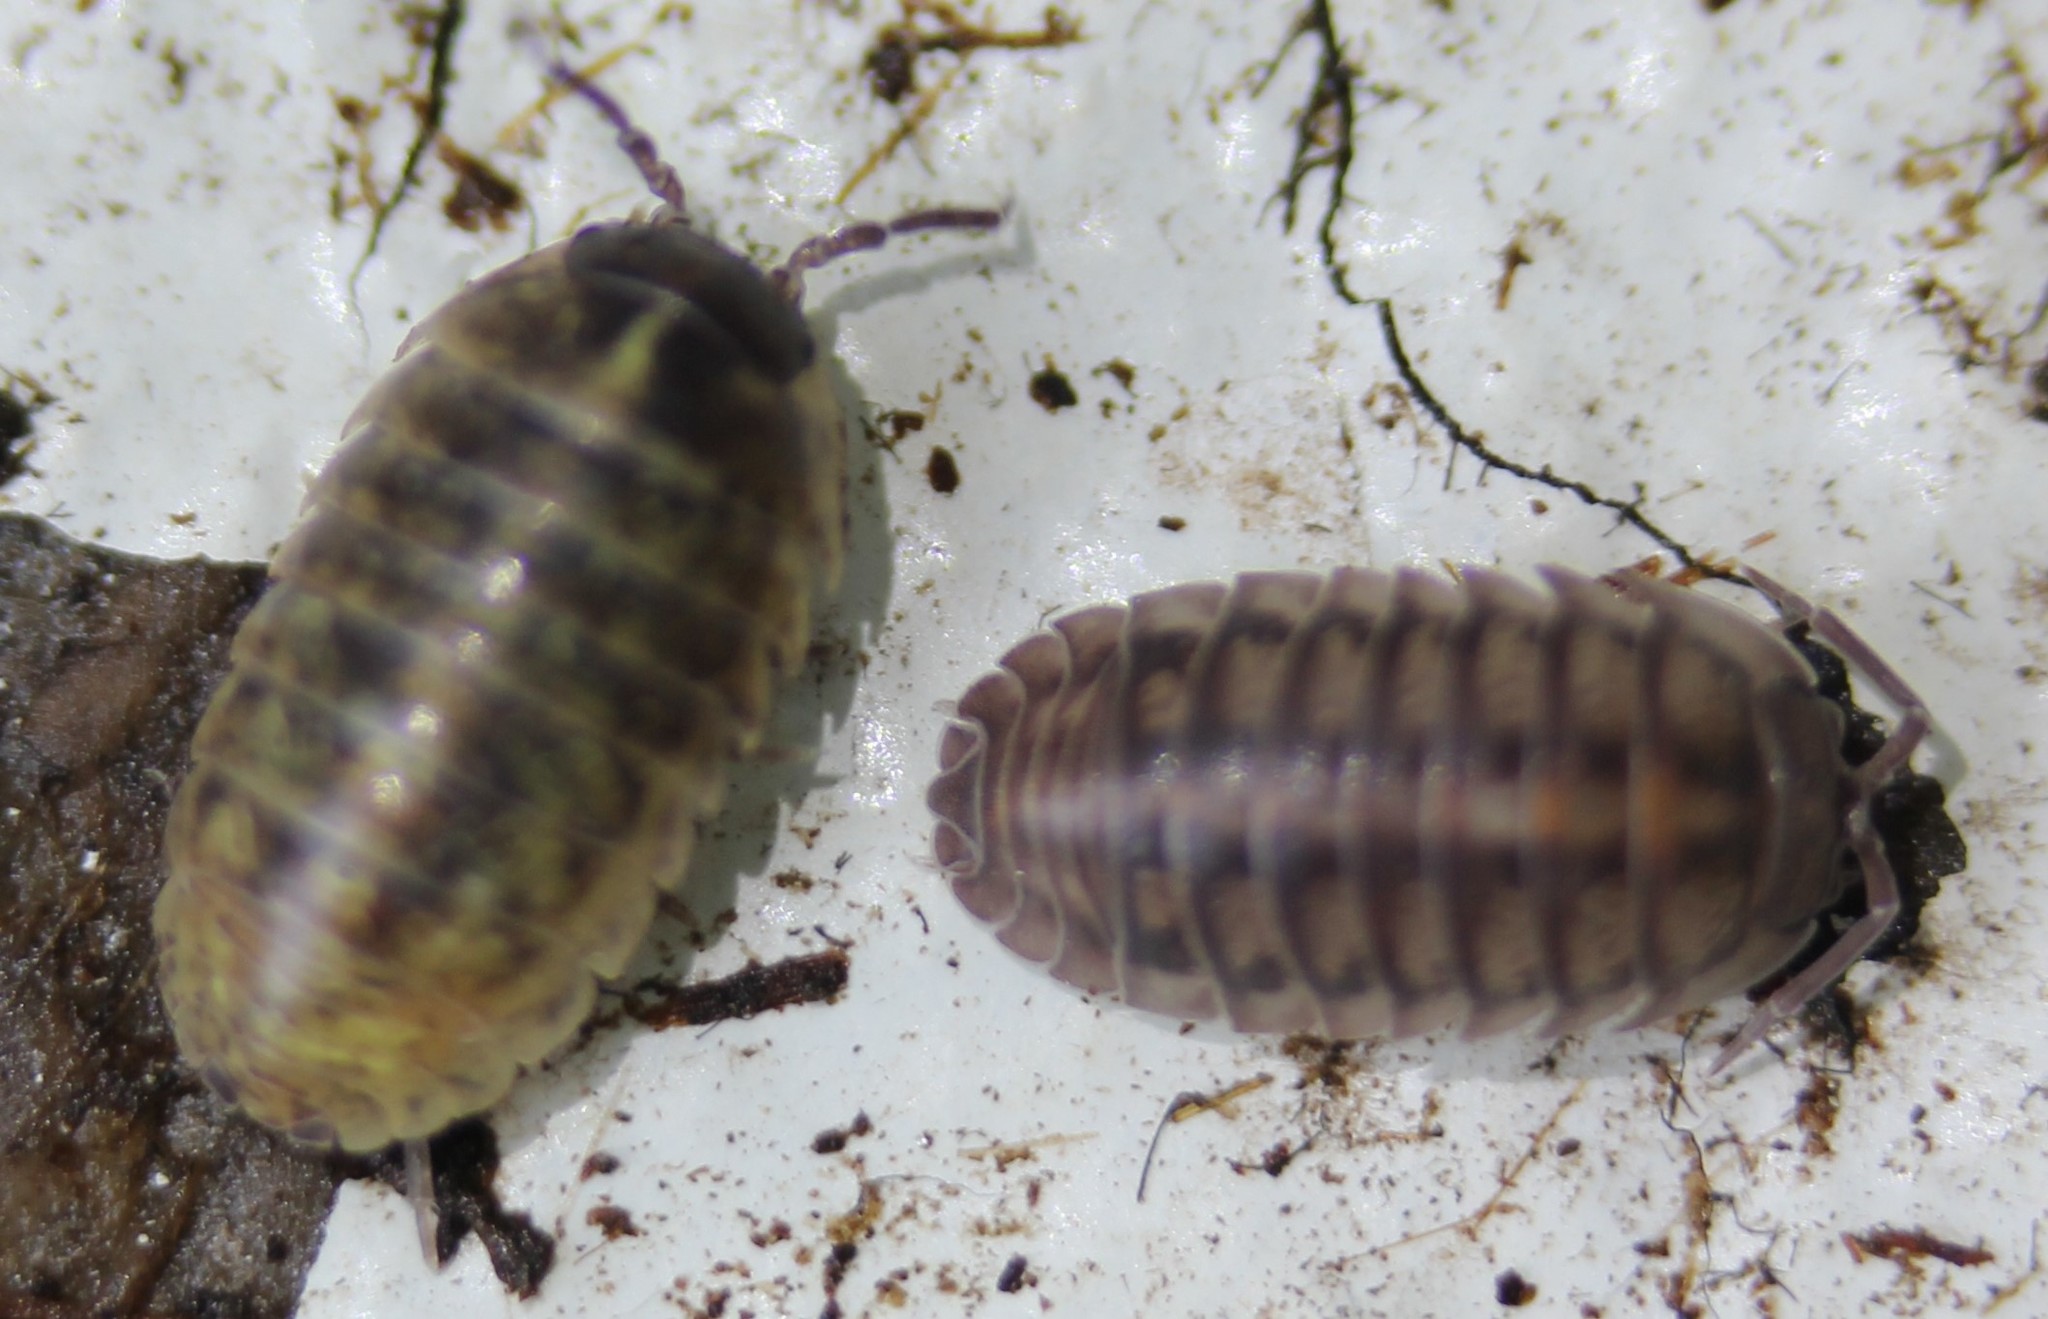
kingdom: Animalia
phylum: Arthropoda
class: Malacostraca
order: Isopoda
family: Armadillidiidae
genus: Armadillidium
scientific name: Armadillidium vulgare
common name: Common pill woodlouse
